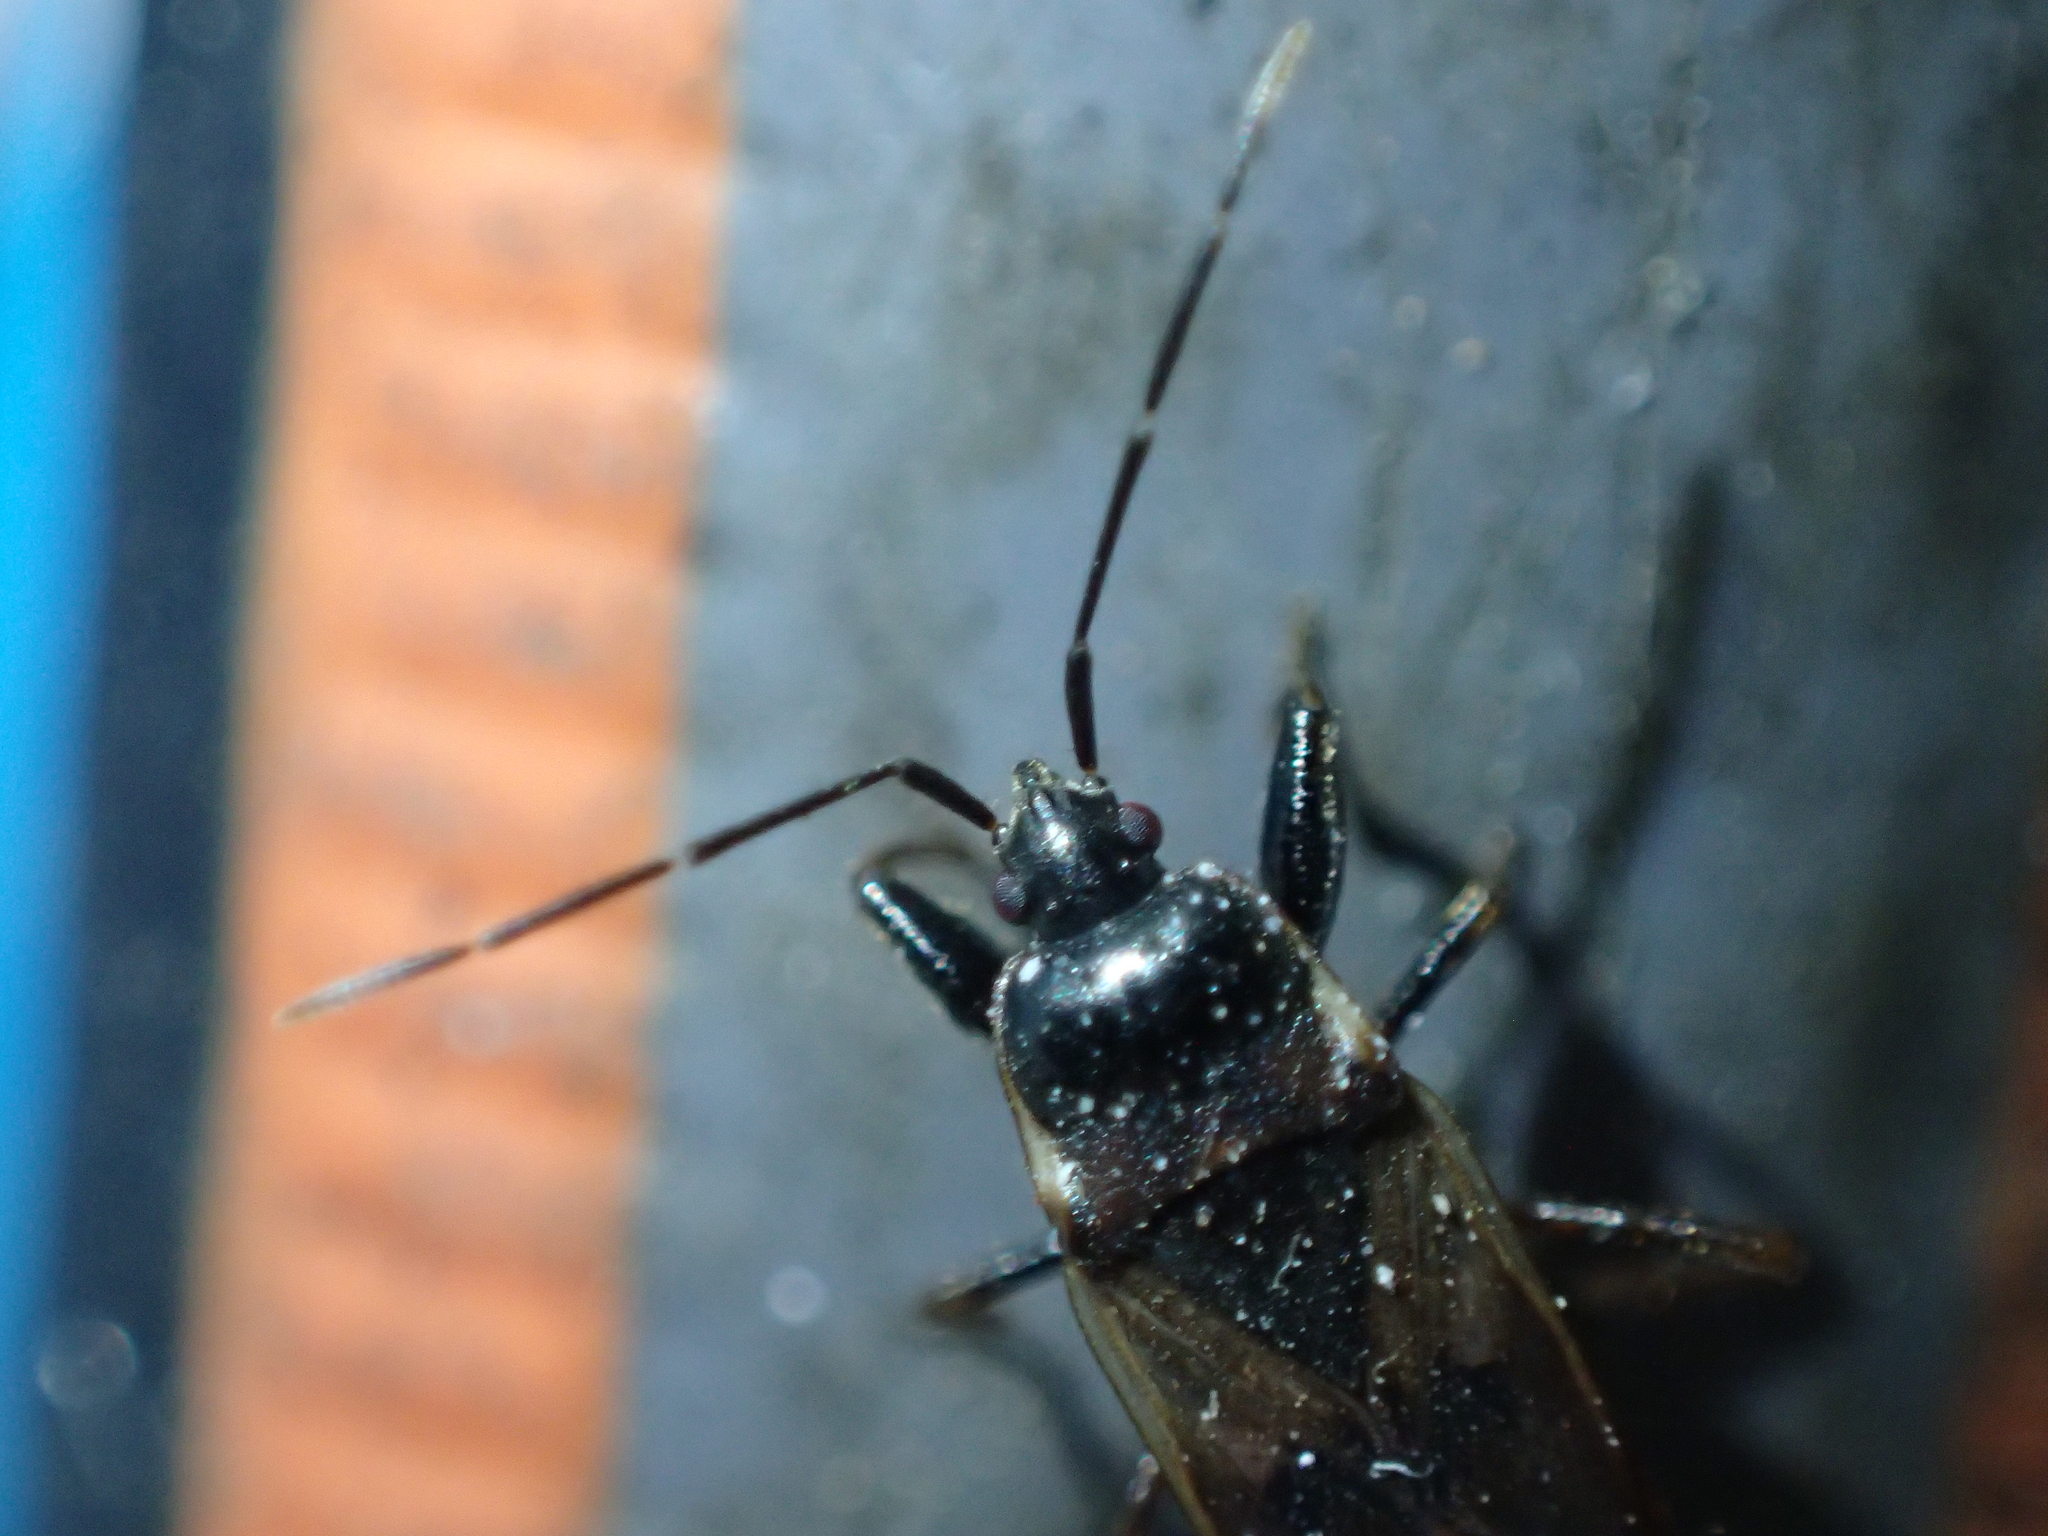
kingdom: Animalia
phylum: Arthropoda
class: Insecta
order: Hemiptera
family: Rhyparochromidae
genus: Eremocoris
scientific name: Eremocoris fenestratus
